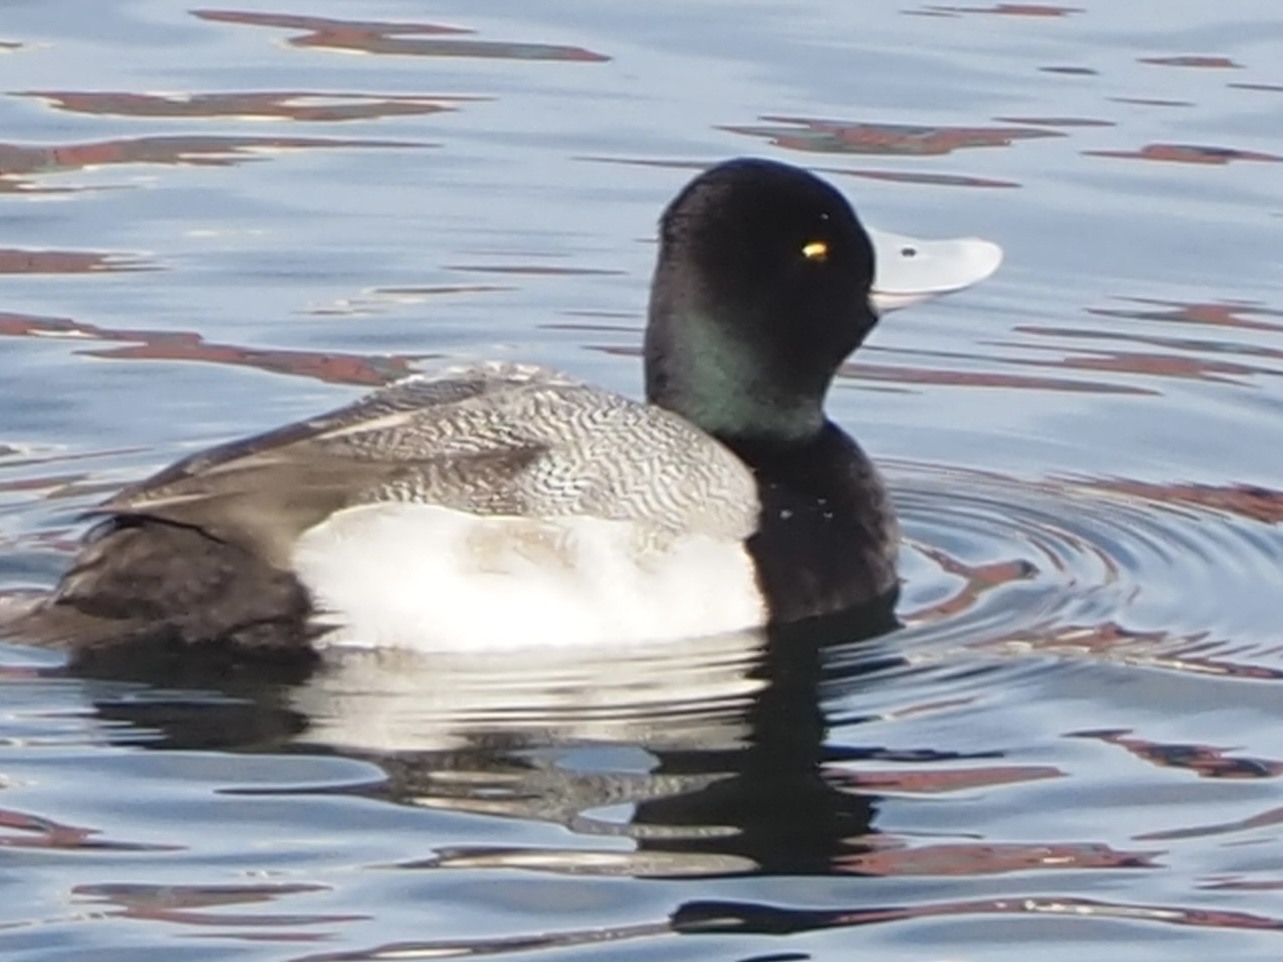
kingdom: Animalia
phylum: Chordata
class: Aves
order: Anseriformes
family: Anatidae
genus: Aythya
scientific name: Aythya affinis
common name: Lesser scaup
